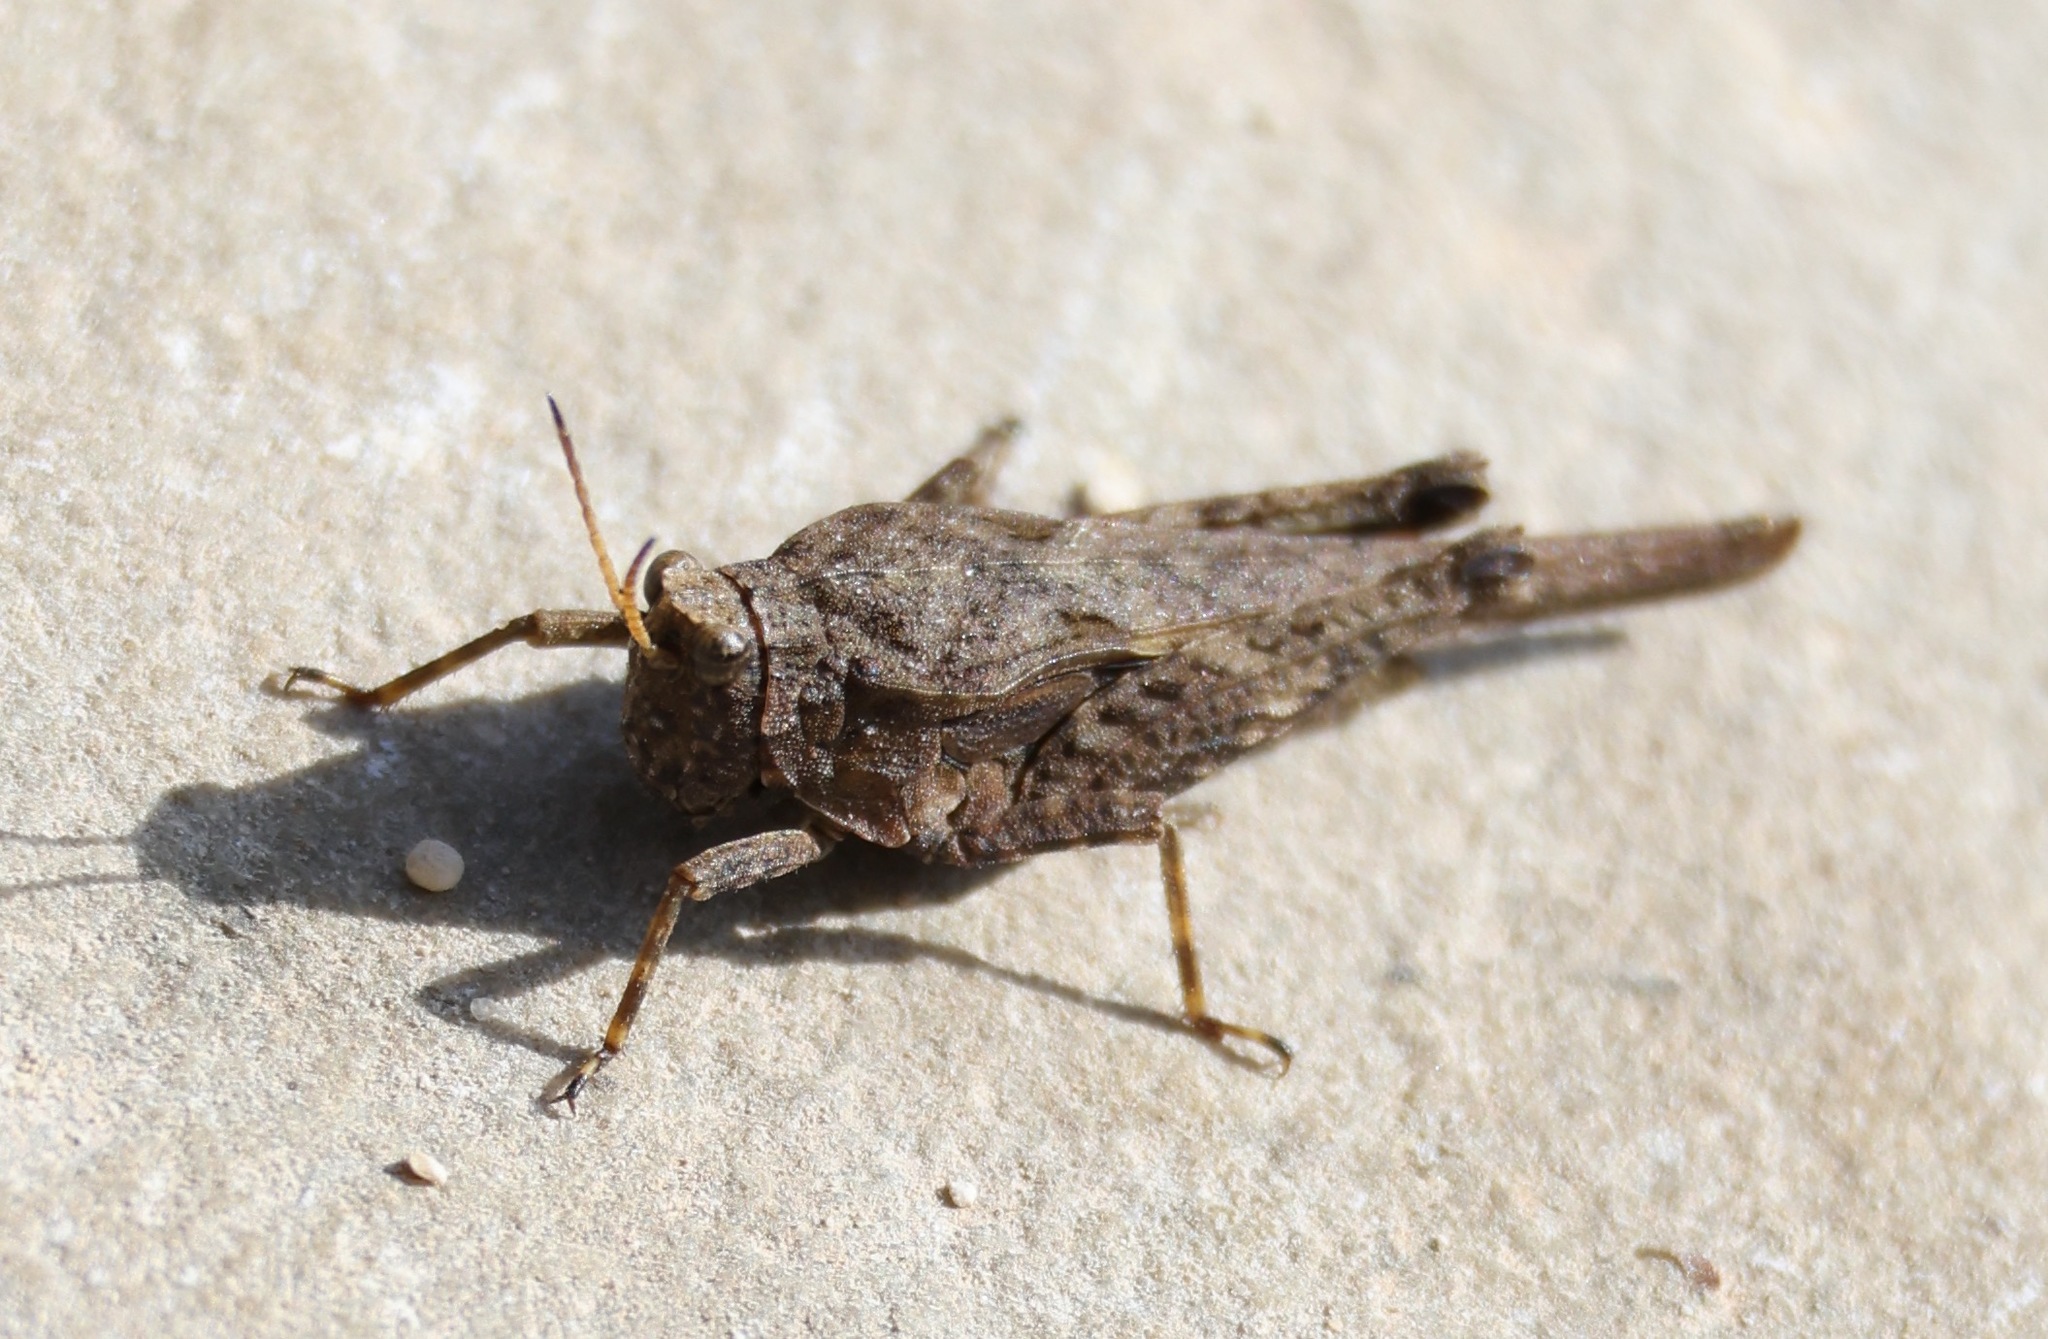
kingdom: Animalia
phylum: Arthropoda
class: Insecta
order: Orthoptera
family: Tetrigidae
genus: Tetrix
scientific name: Tetrix subulata
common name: Slender ground-hopper
